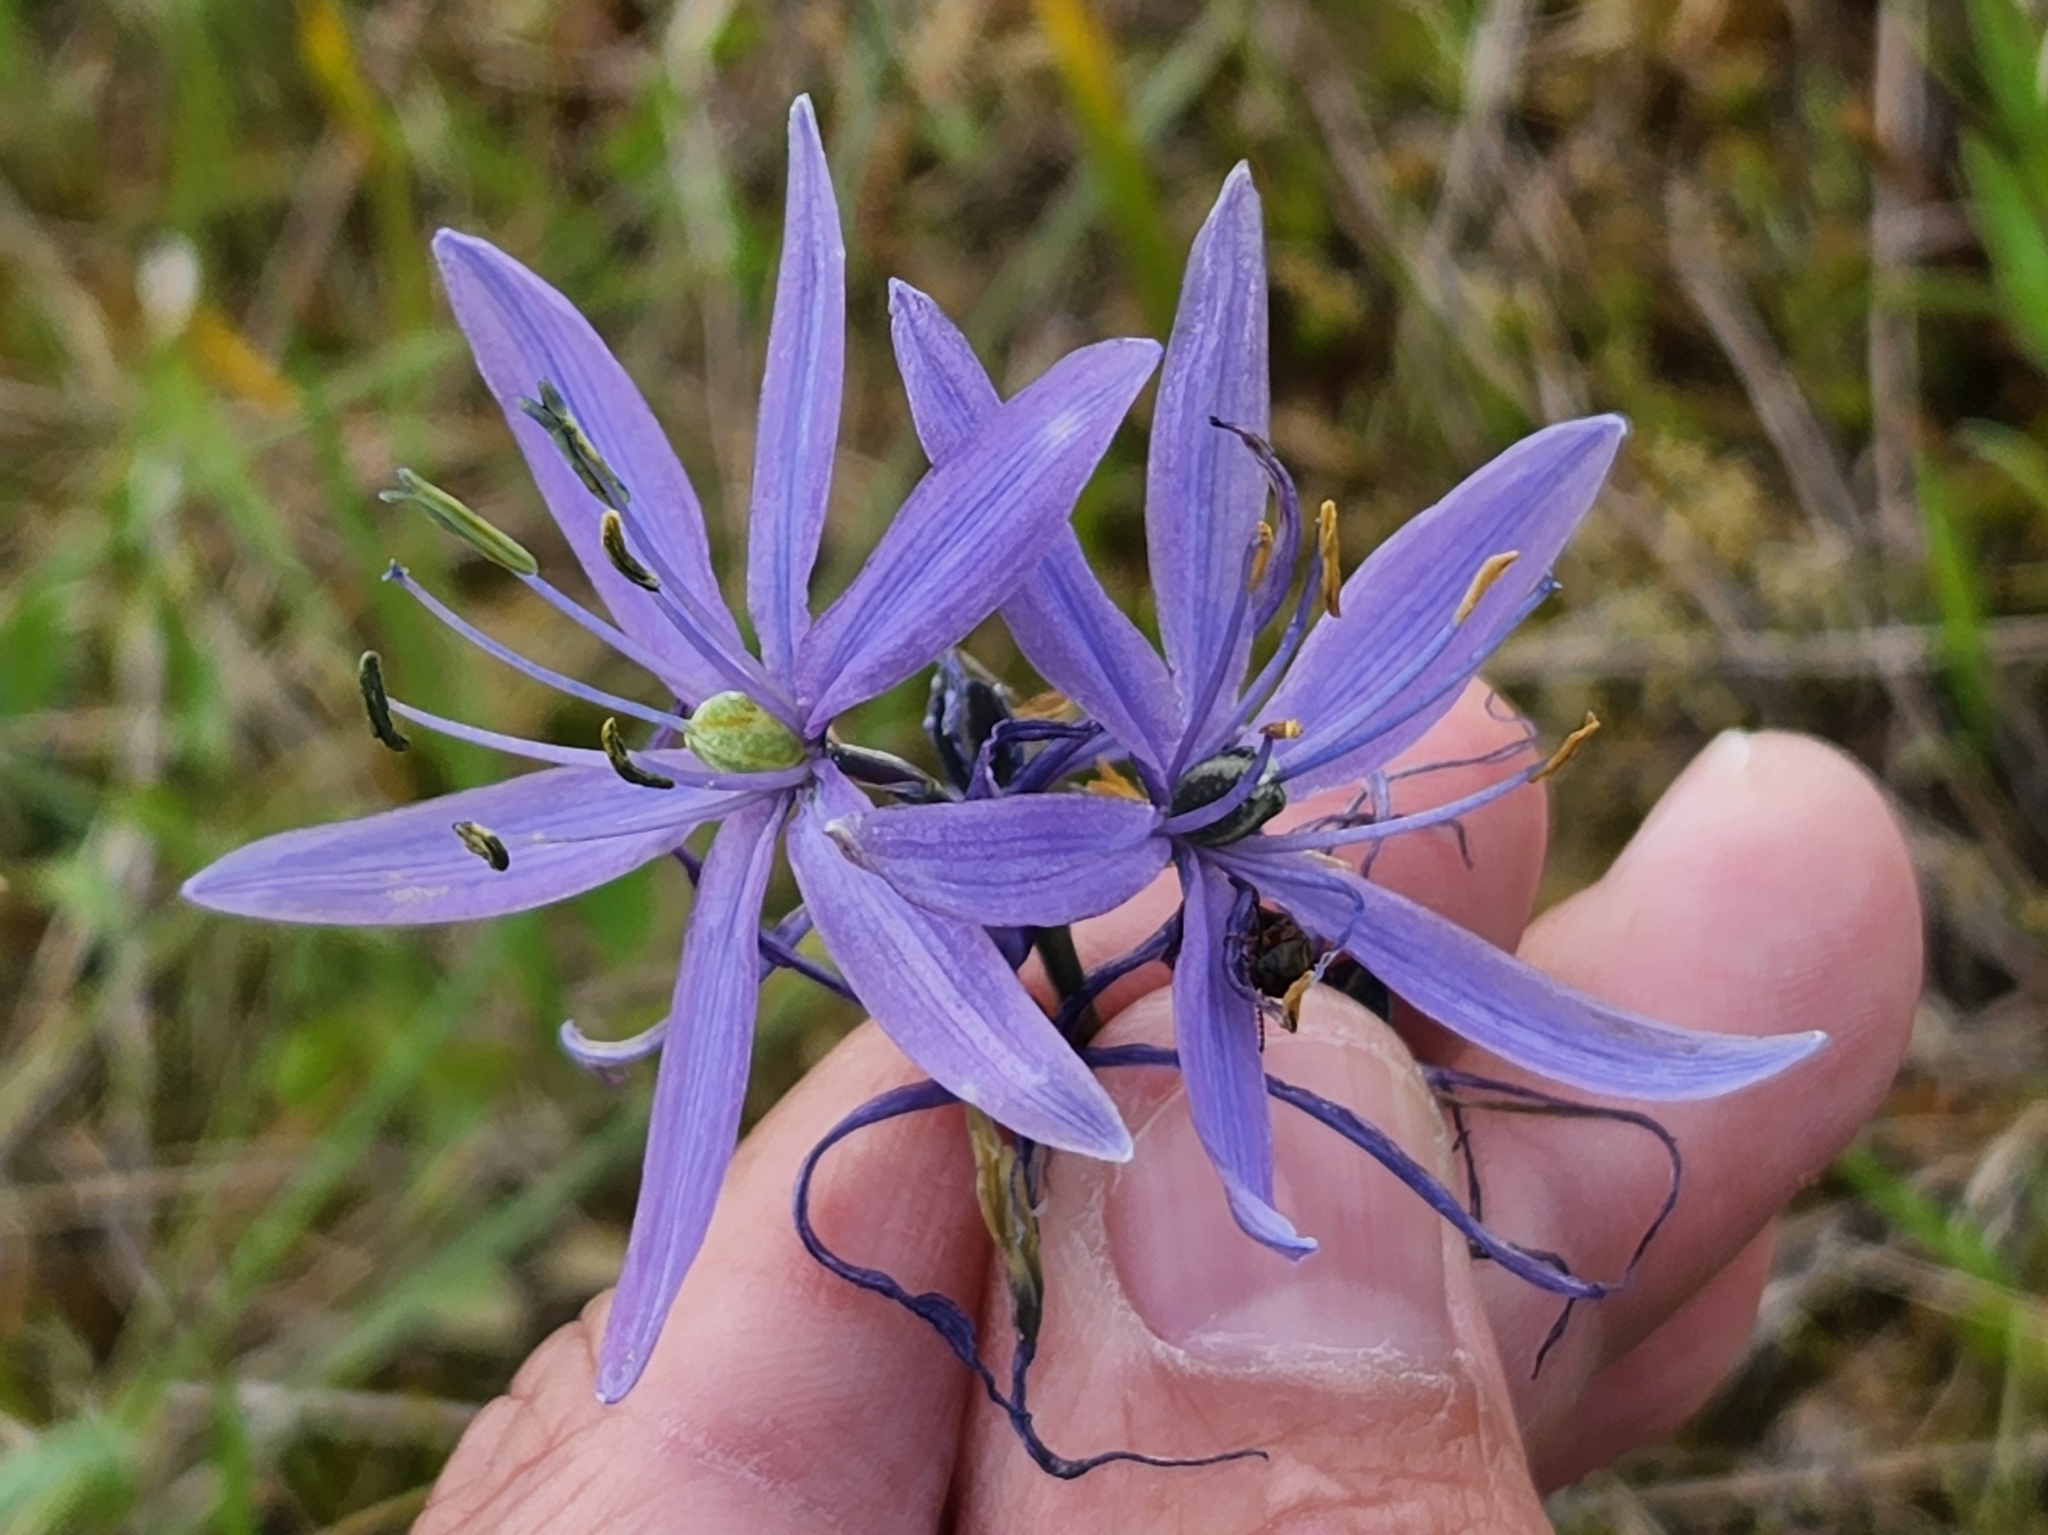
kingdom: Plantae
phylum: Tracheophyta
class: Liliopsida
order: Asparagales
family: Asparagaceae
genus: Camassia
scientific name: Camassia quamash
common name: Common camas
